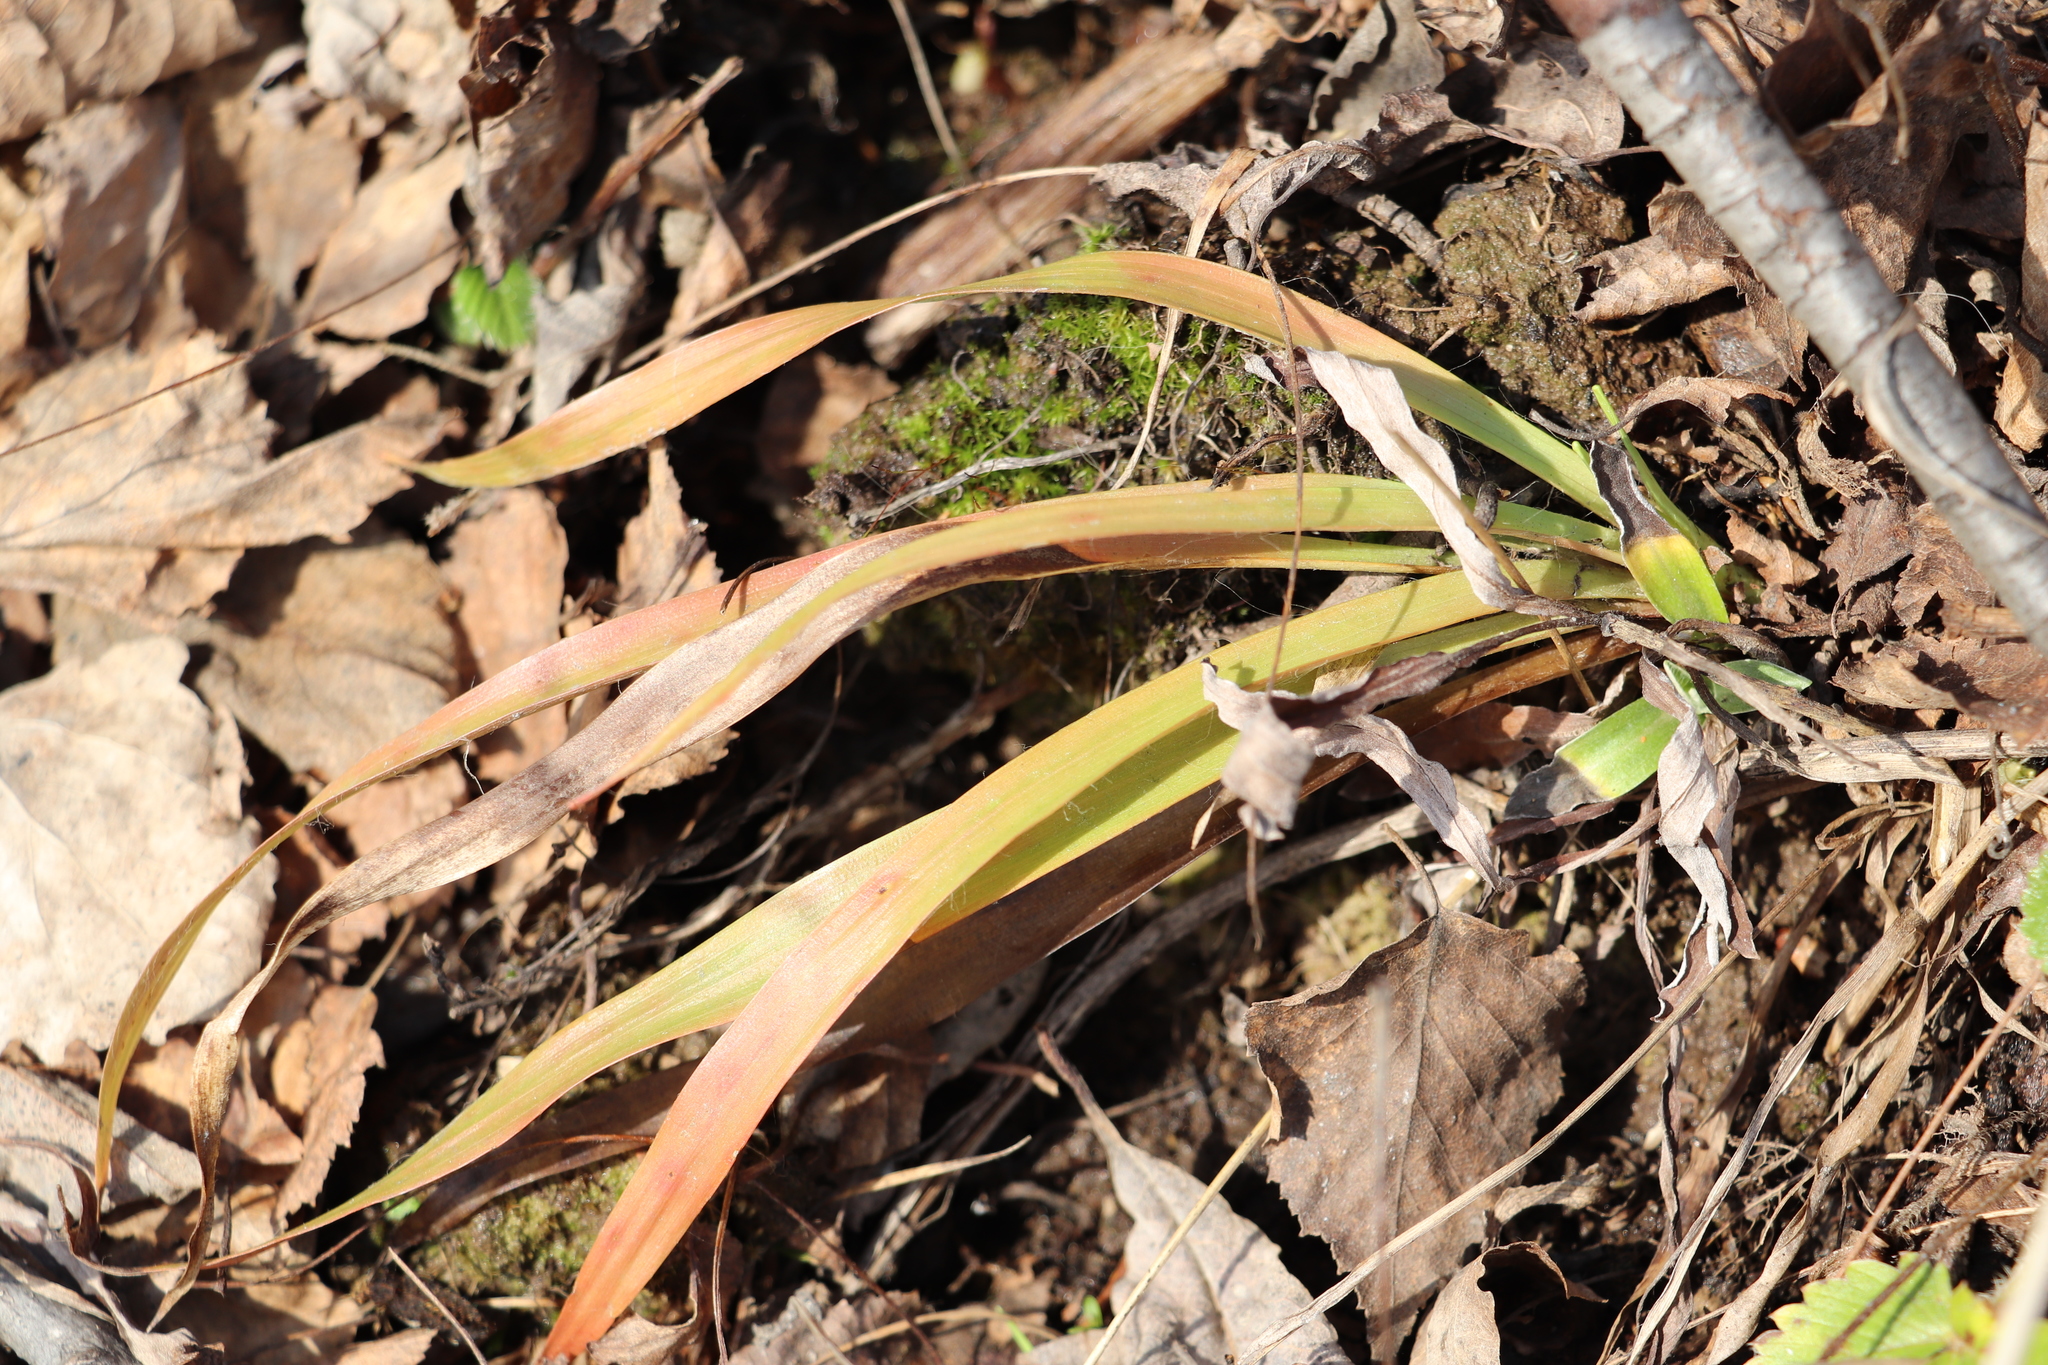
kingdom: Plantae
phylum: Tracheophyta
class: Liliopsida
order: Poales
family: Juncaceae
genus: Luzula
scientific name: Luzula pilosa
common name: Hairy wood-rush
